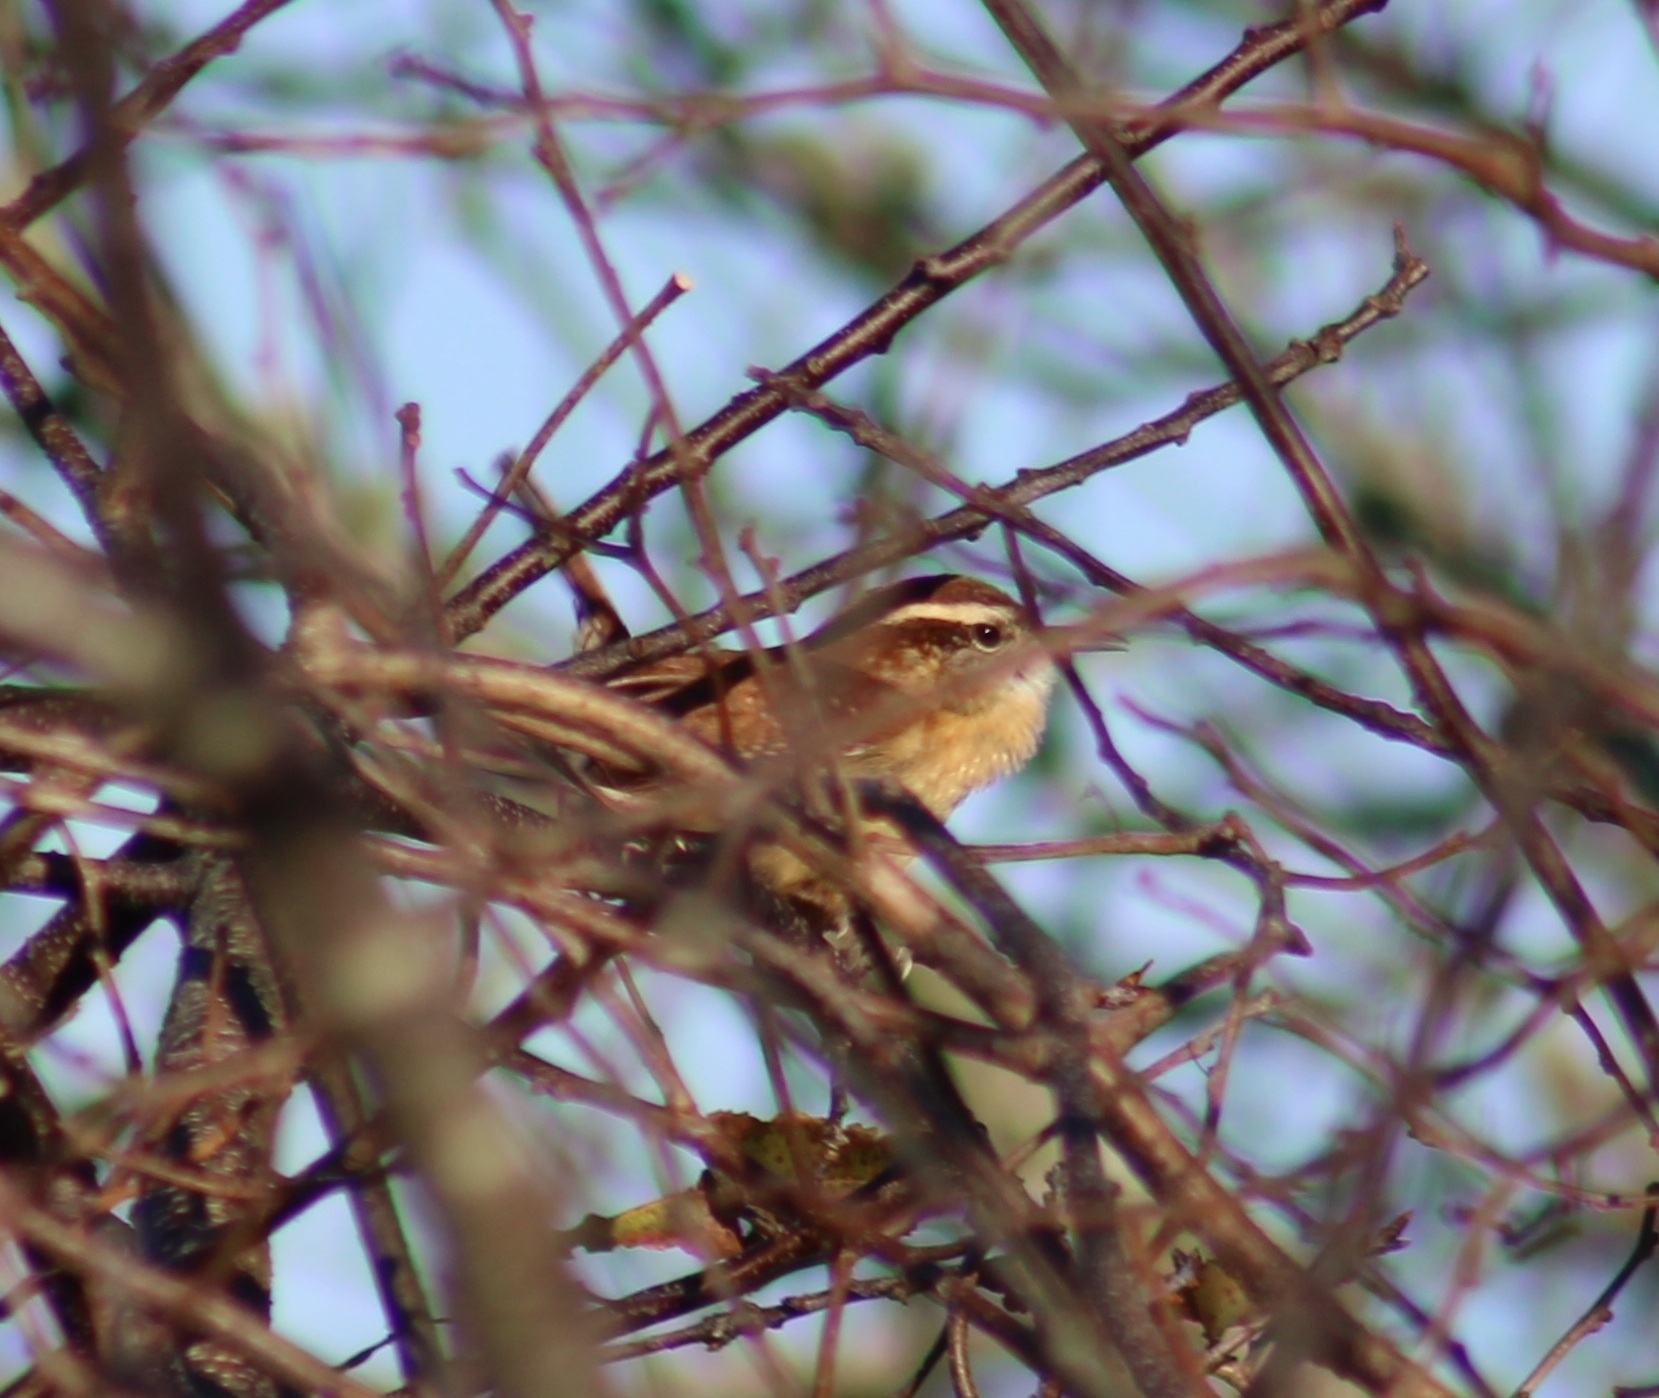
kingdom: Animalia
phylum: Chordata
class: Aves
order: Passeriformes
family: Troglodytidae
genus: Thryothorus
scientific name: Thryothorus ludovicianus
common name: Carolina wren
